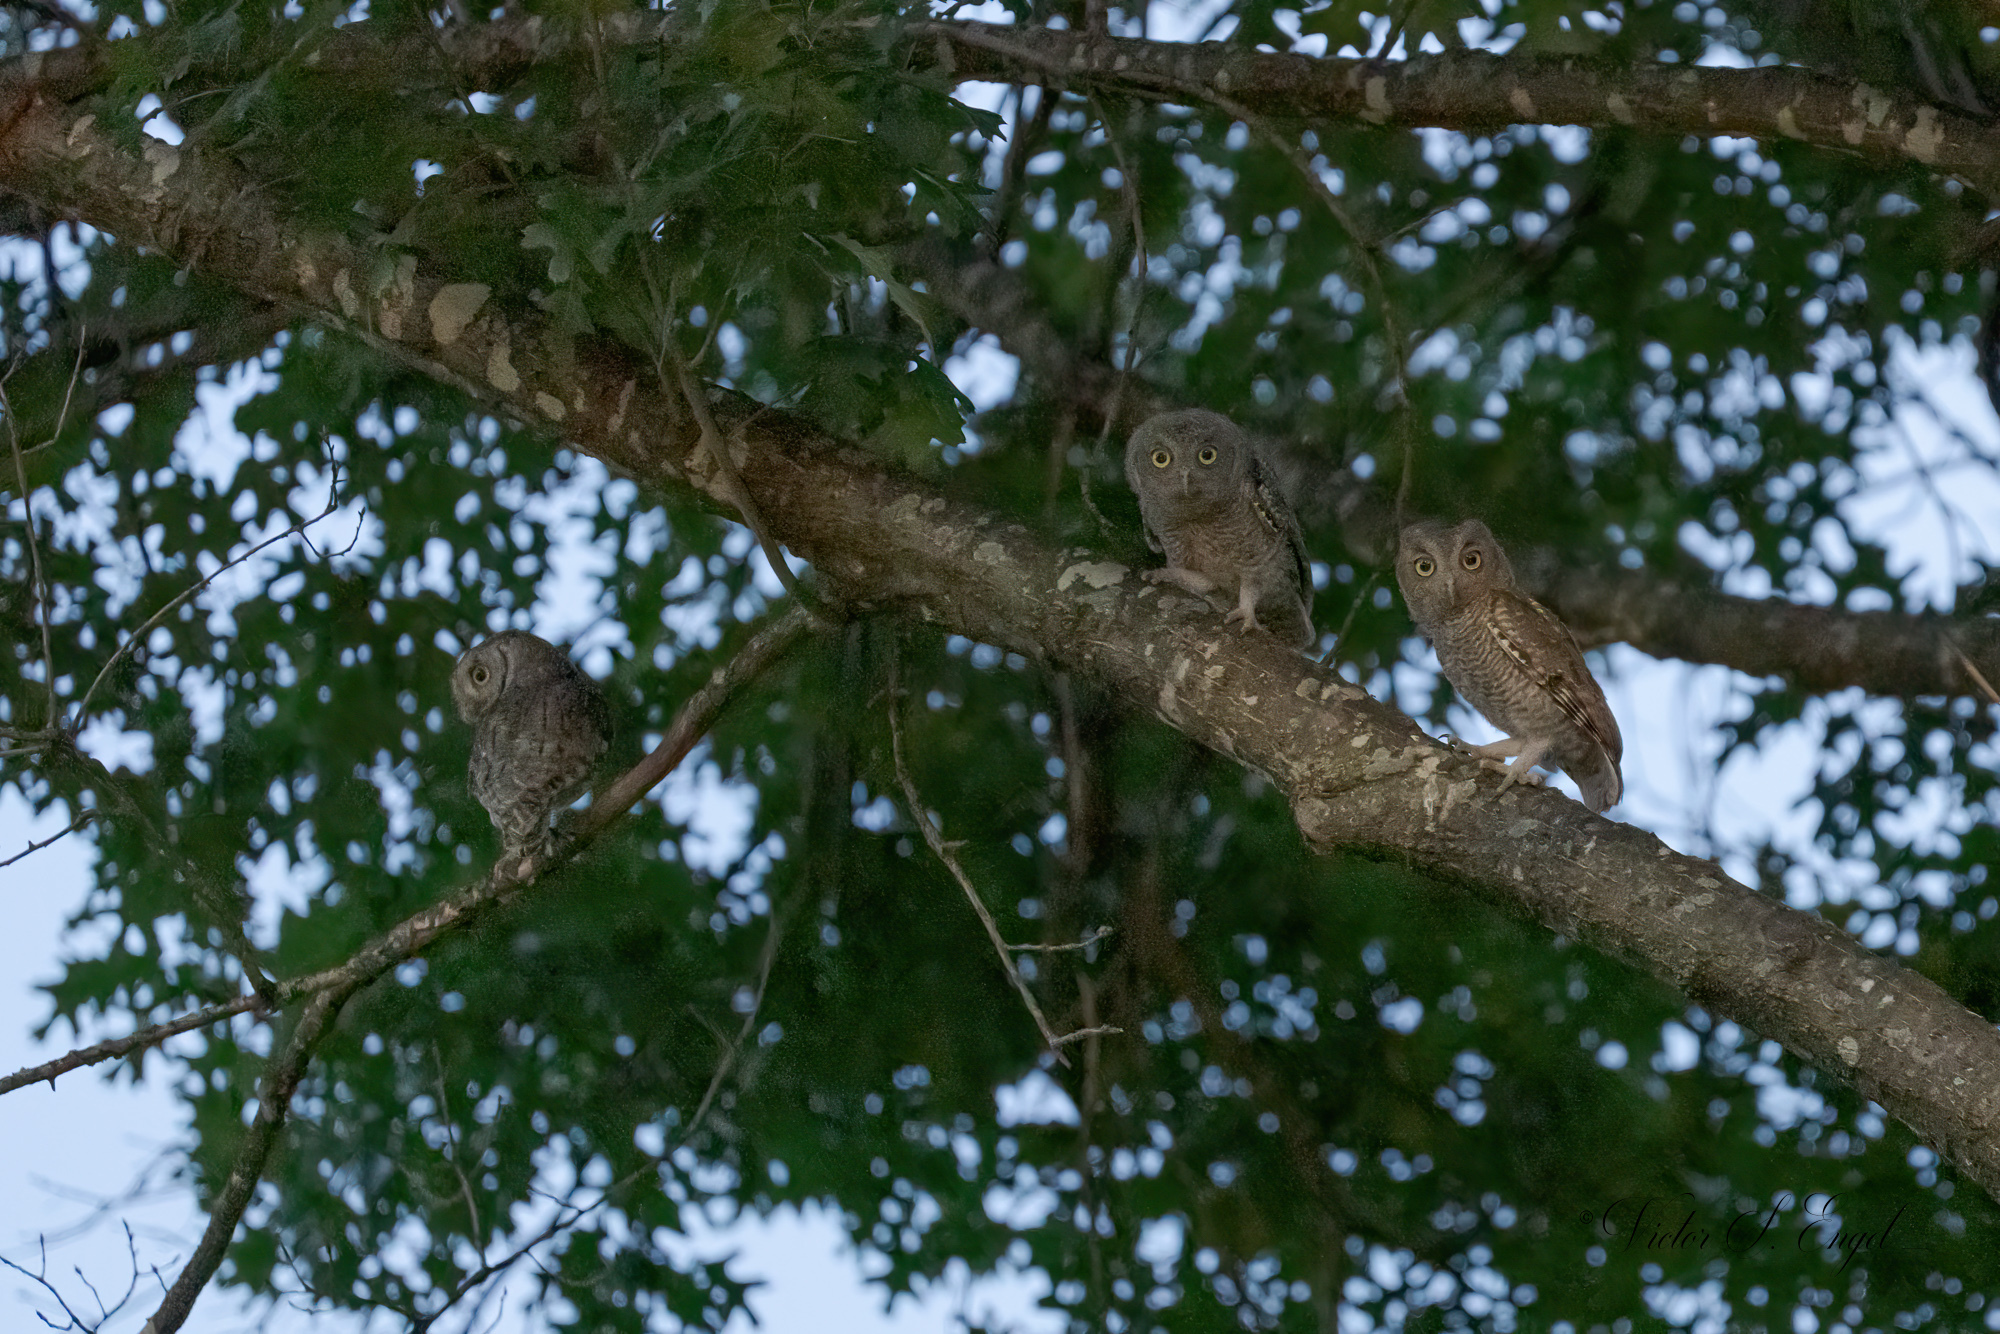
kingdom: Animalia
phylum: Chordata
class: Aves
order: Strigiformes
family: Strigidae
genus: Megascops
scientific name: Megascops asio
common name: Eastern screech-owl
